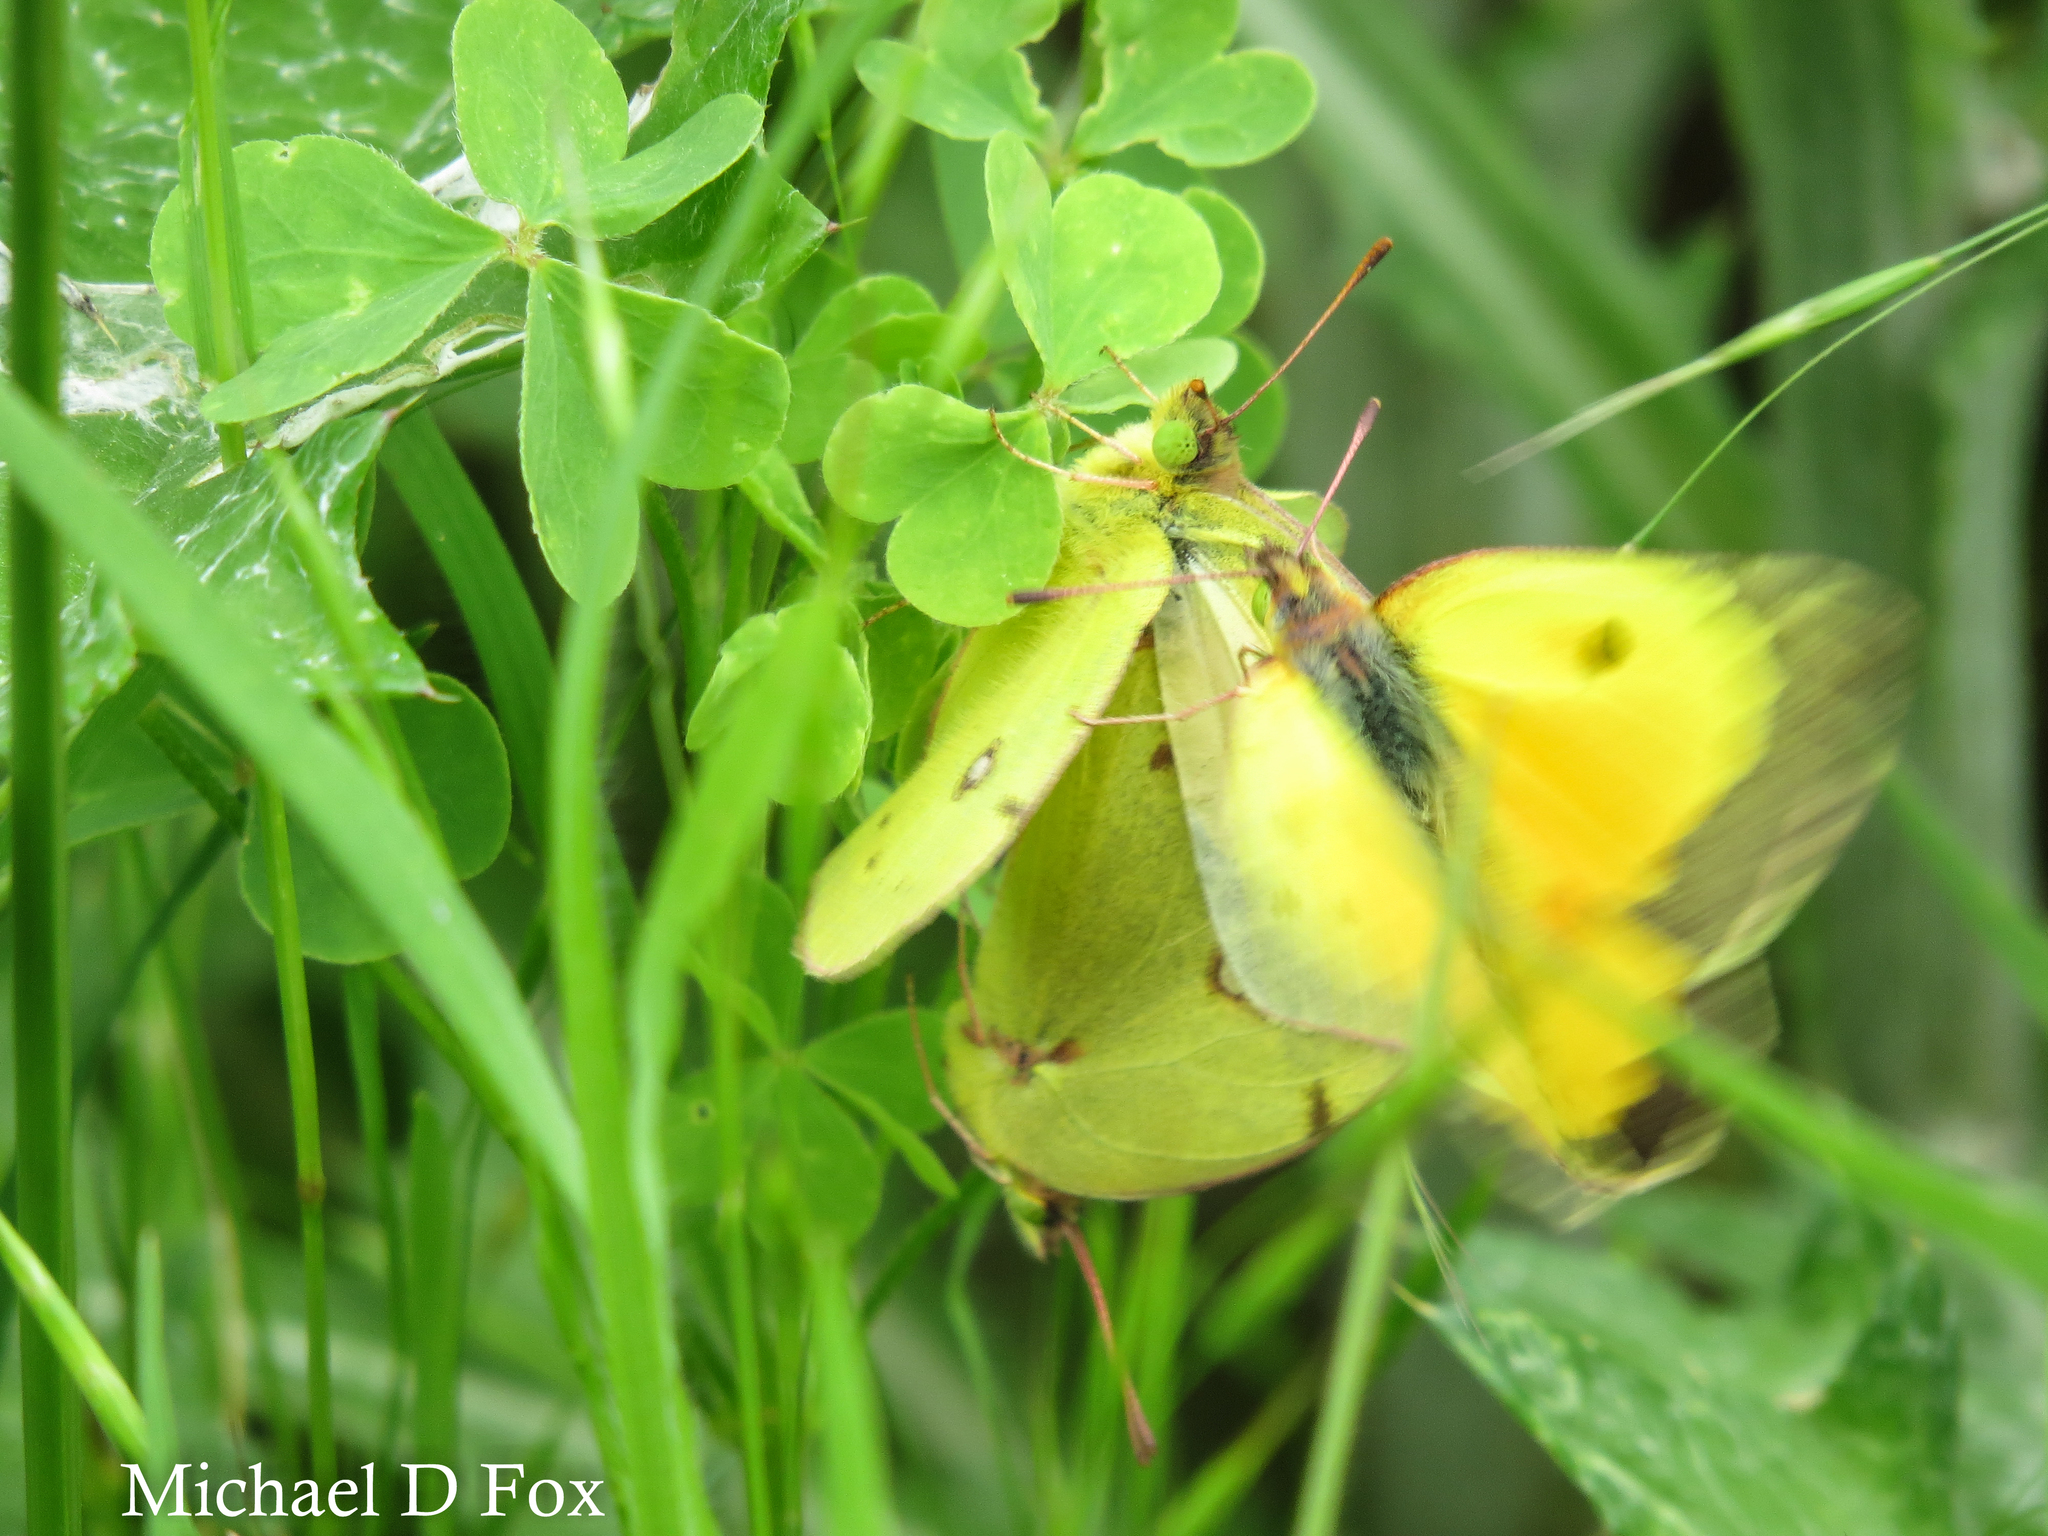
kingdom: Animalia
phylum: Arthropoda
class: Insecta
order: Lepidoptera
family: Pieridae
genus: Colias
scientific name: Colias eurytheme
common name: Alfalfa butterfly
